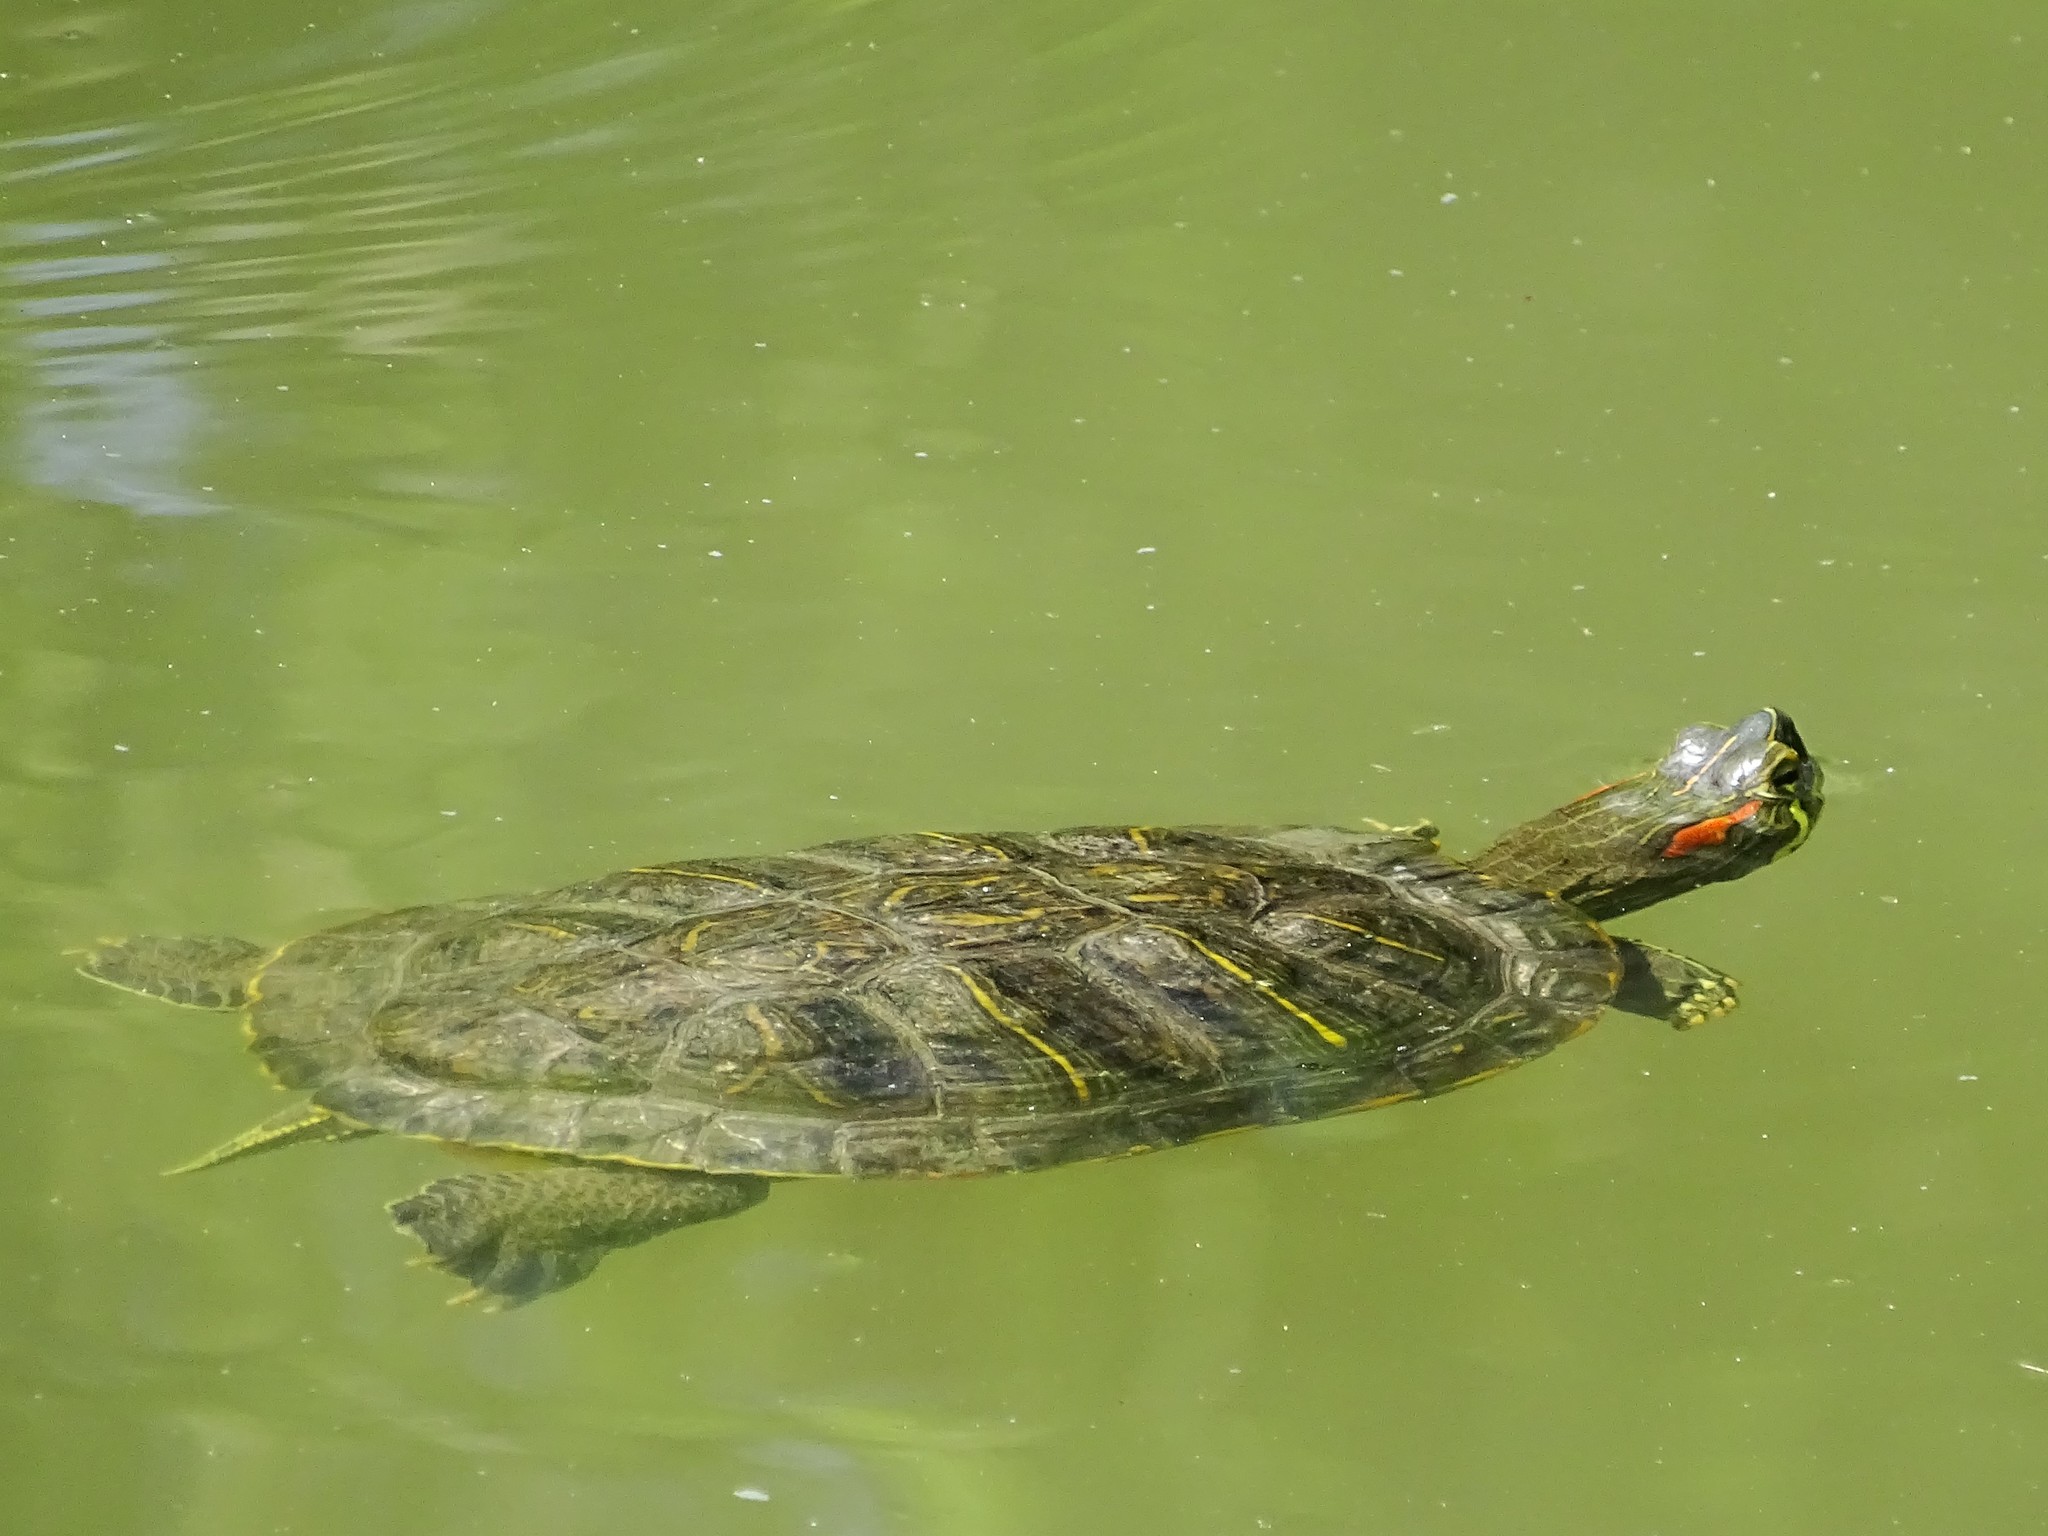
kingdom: Animalia
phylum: Chordata
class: Testudines
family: Emydidae
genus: Trachemys
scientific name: Trachemys scripta
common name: Slider
